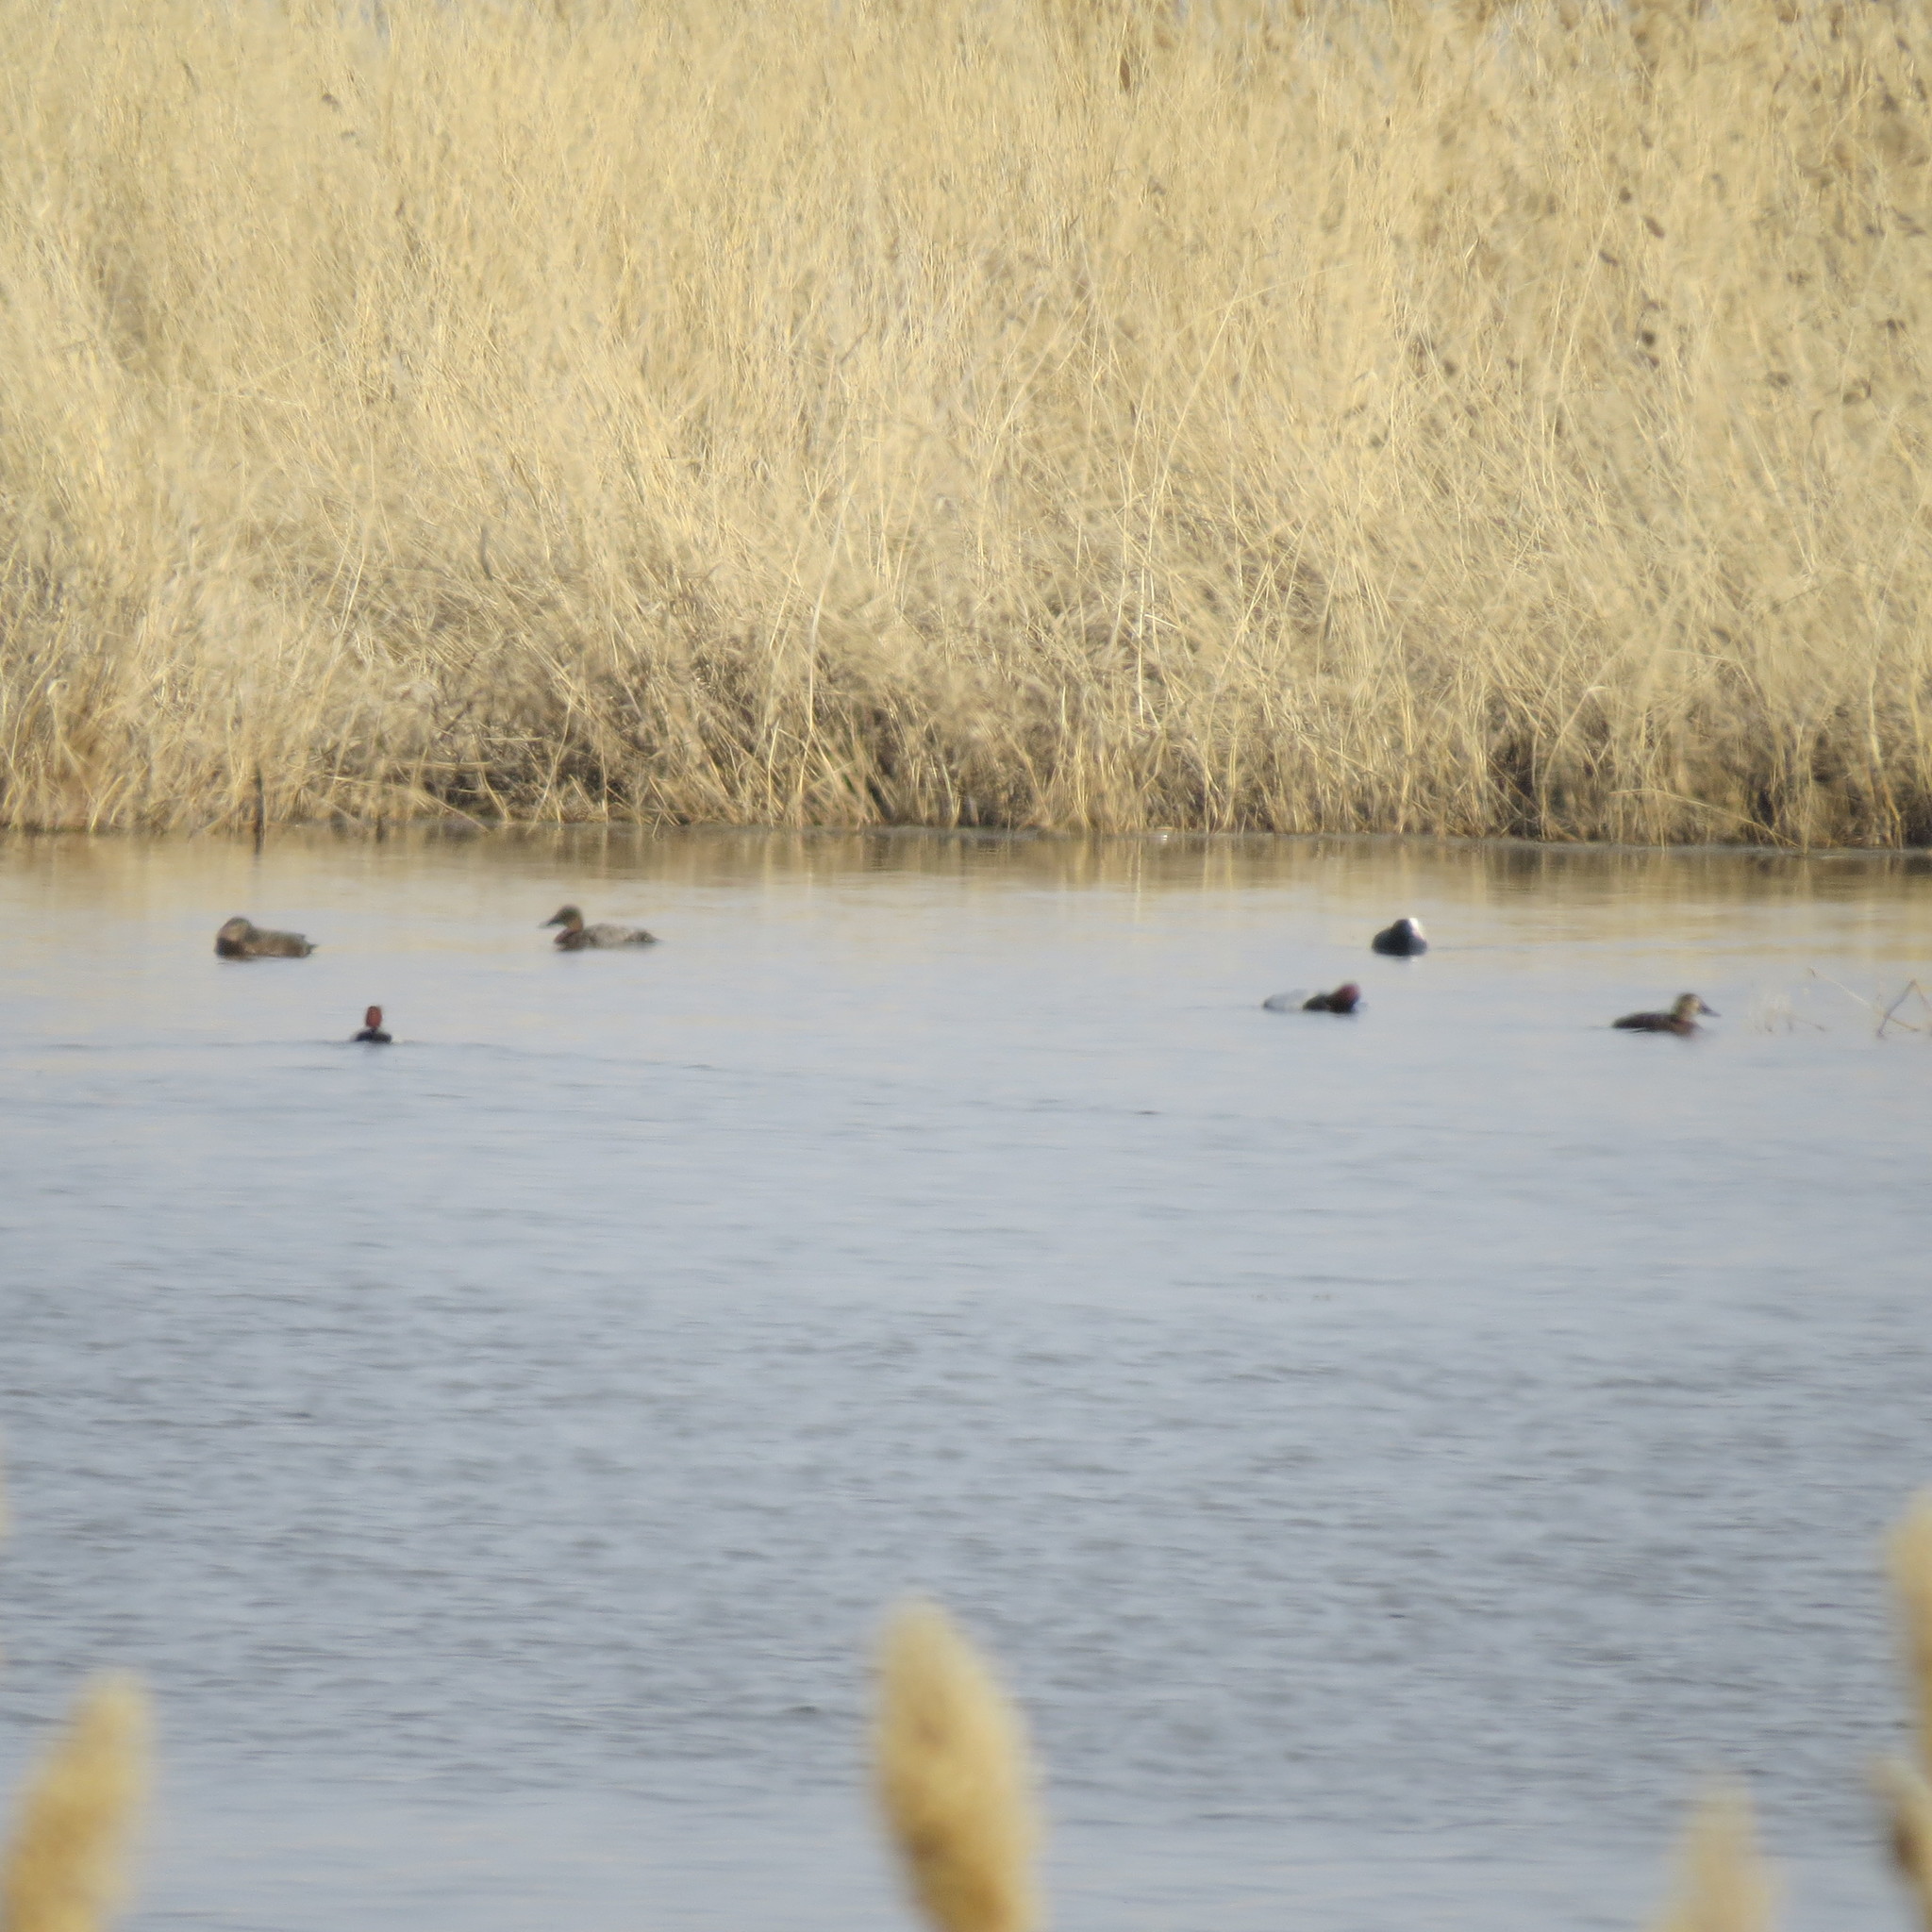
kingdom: Animalia
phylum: Chordata
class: Aves
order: Anseriformes
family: Anatidae
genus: Aythya
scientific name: Aythya ferina
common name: Common pochard
